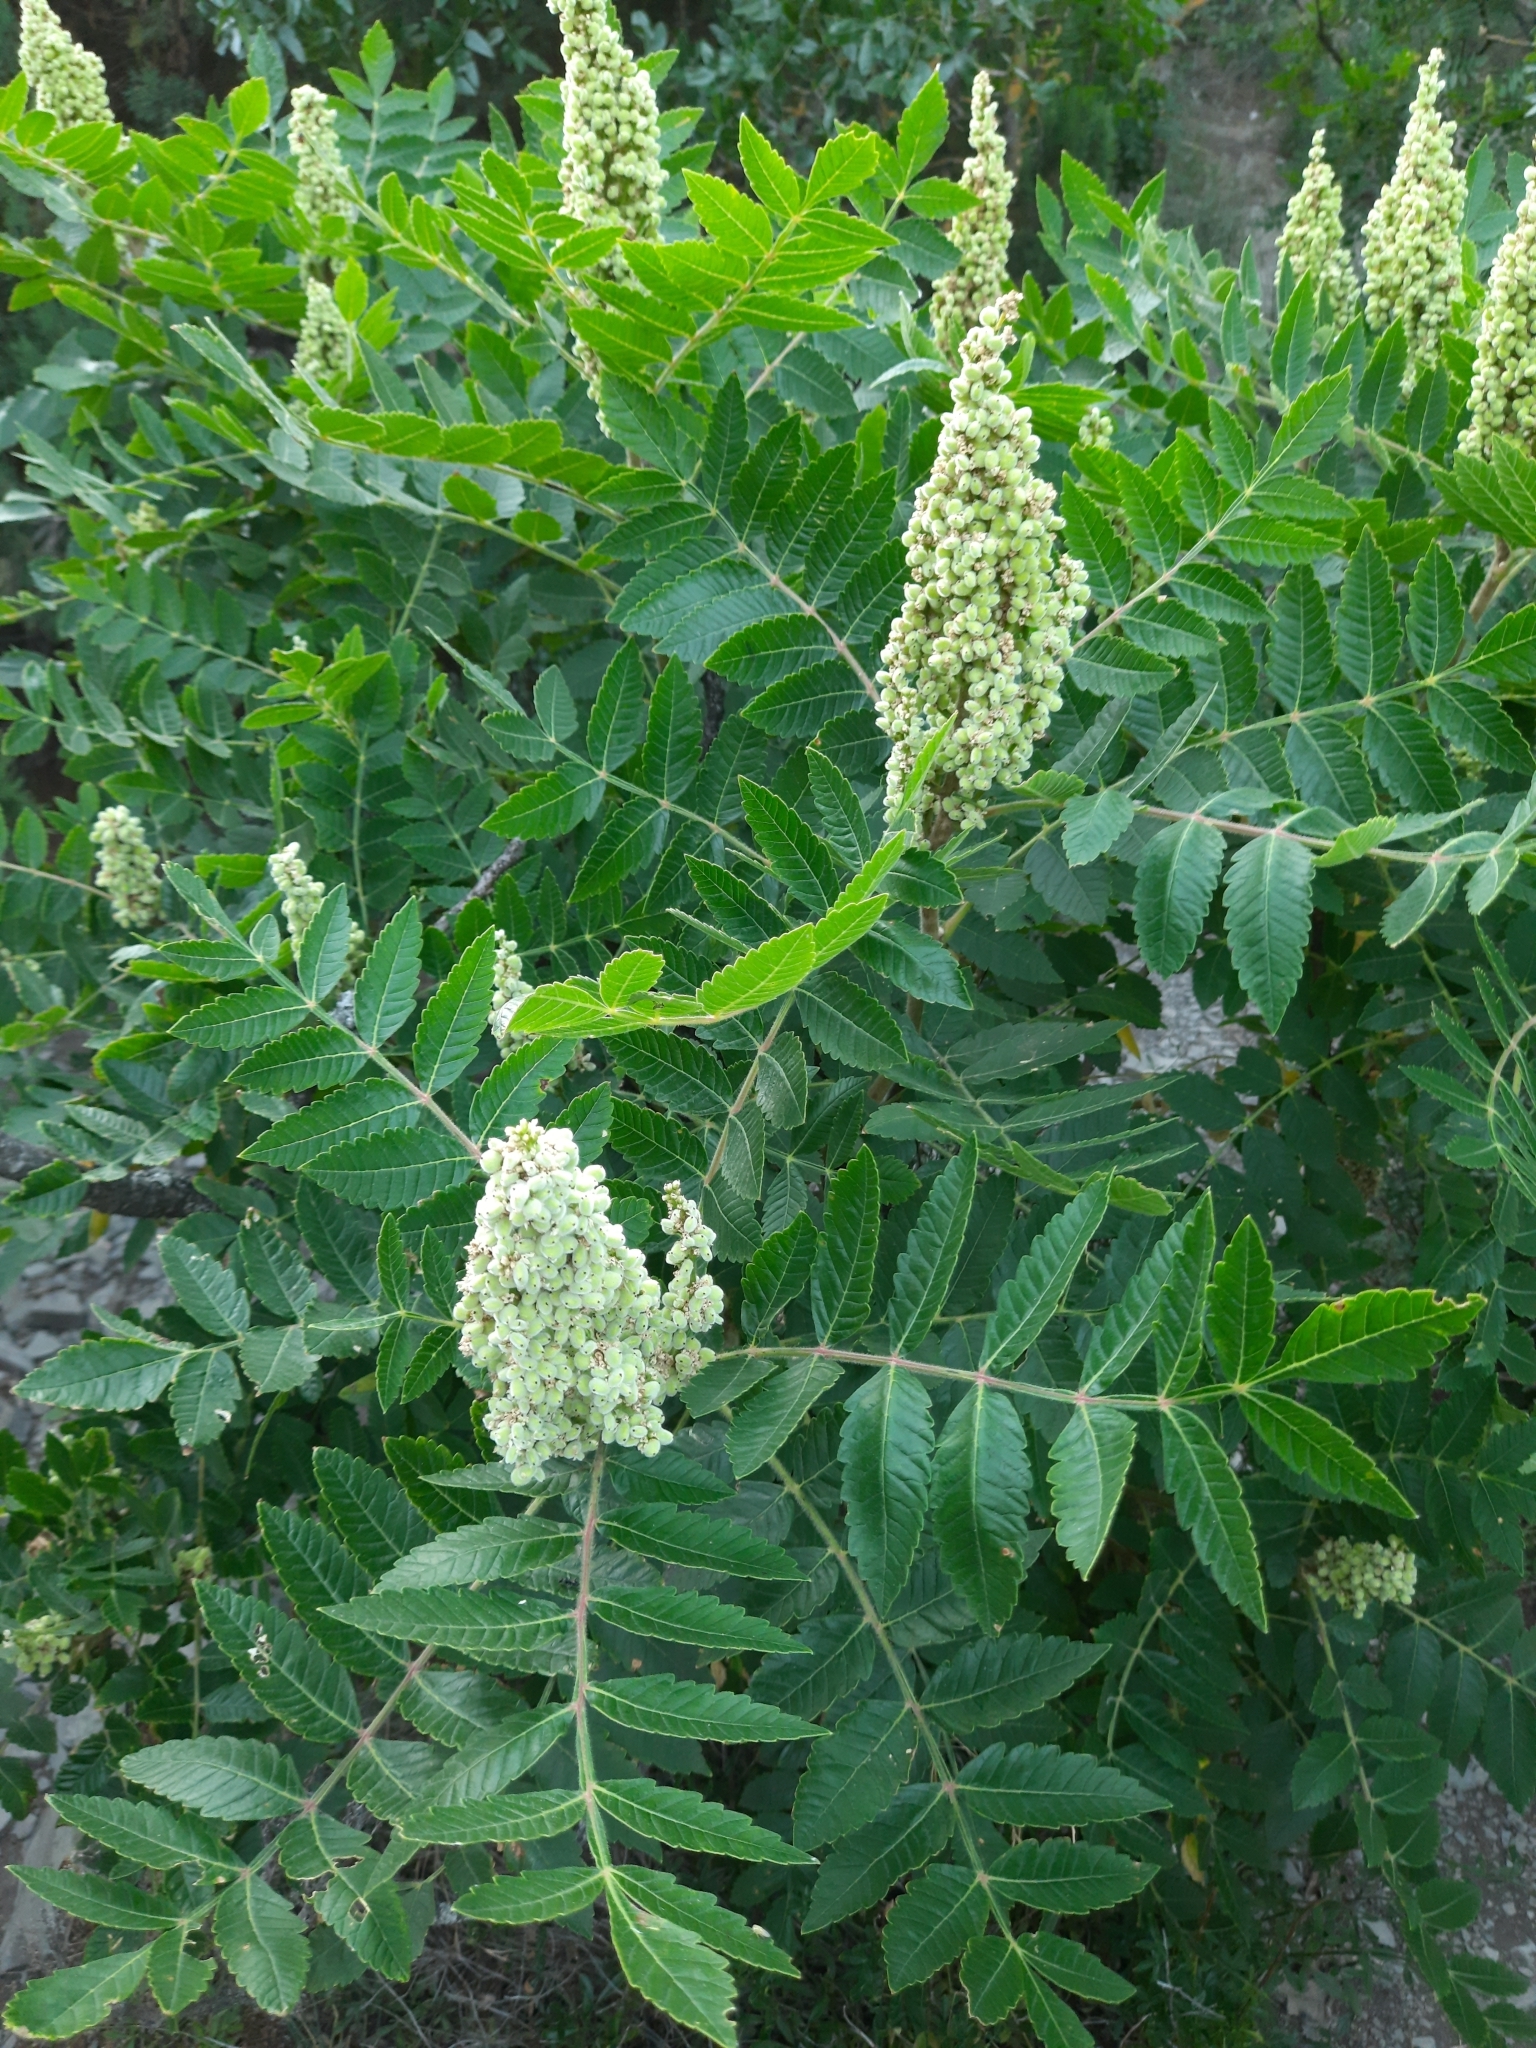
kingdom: Plantae
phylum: Tracheophyta
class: Magnoliopsida
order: Sapindales
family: Anacardiaceae
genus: Rhus
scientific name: Rhus coriaria
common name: Tanner's sumach
